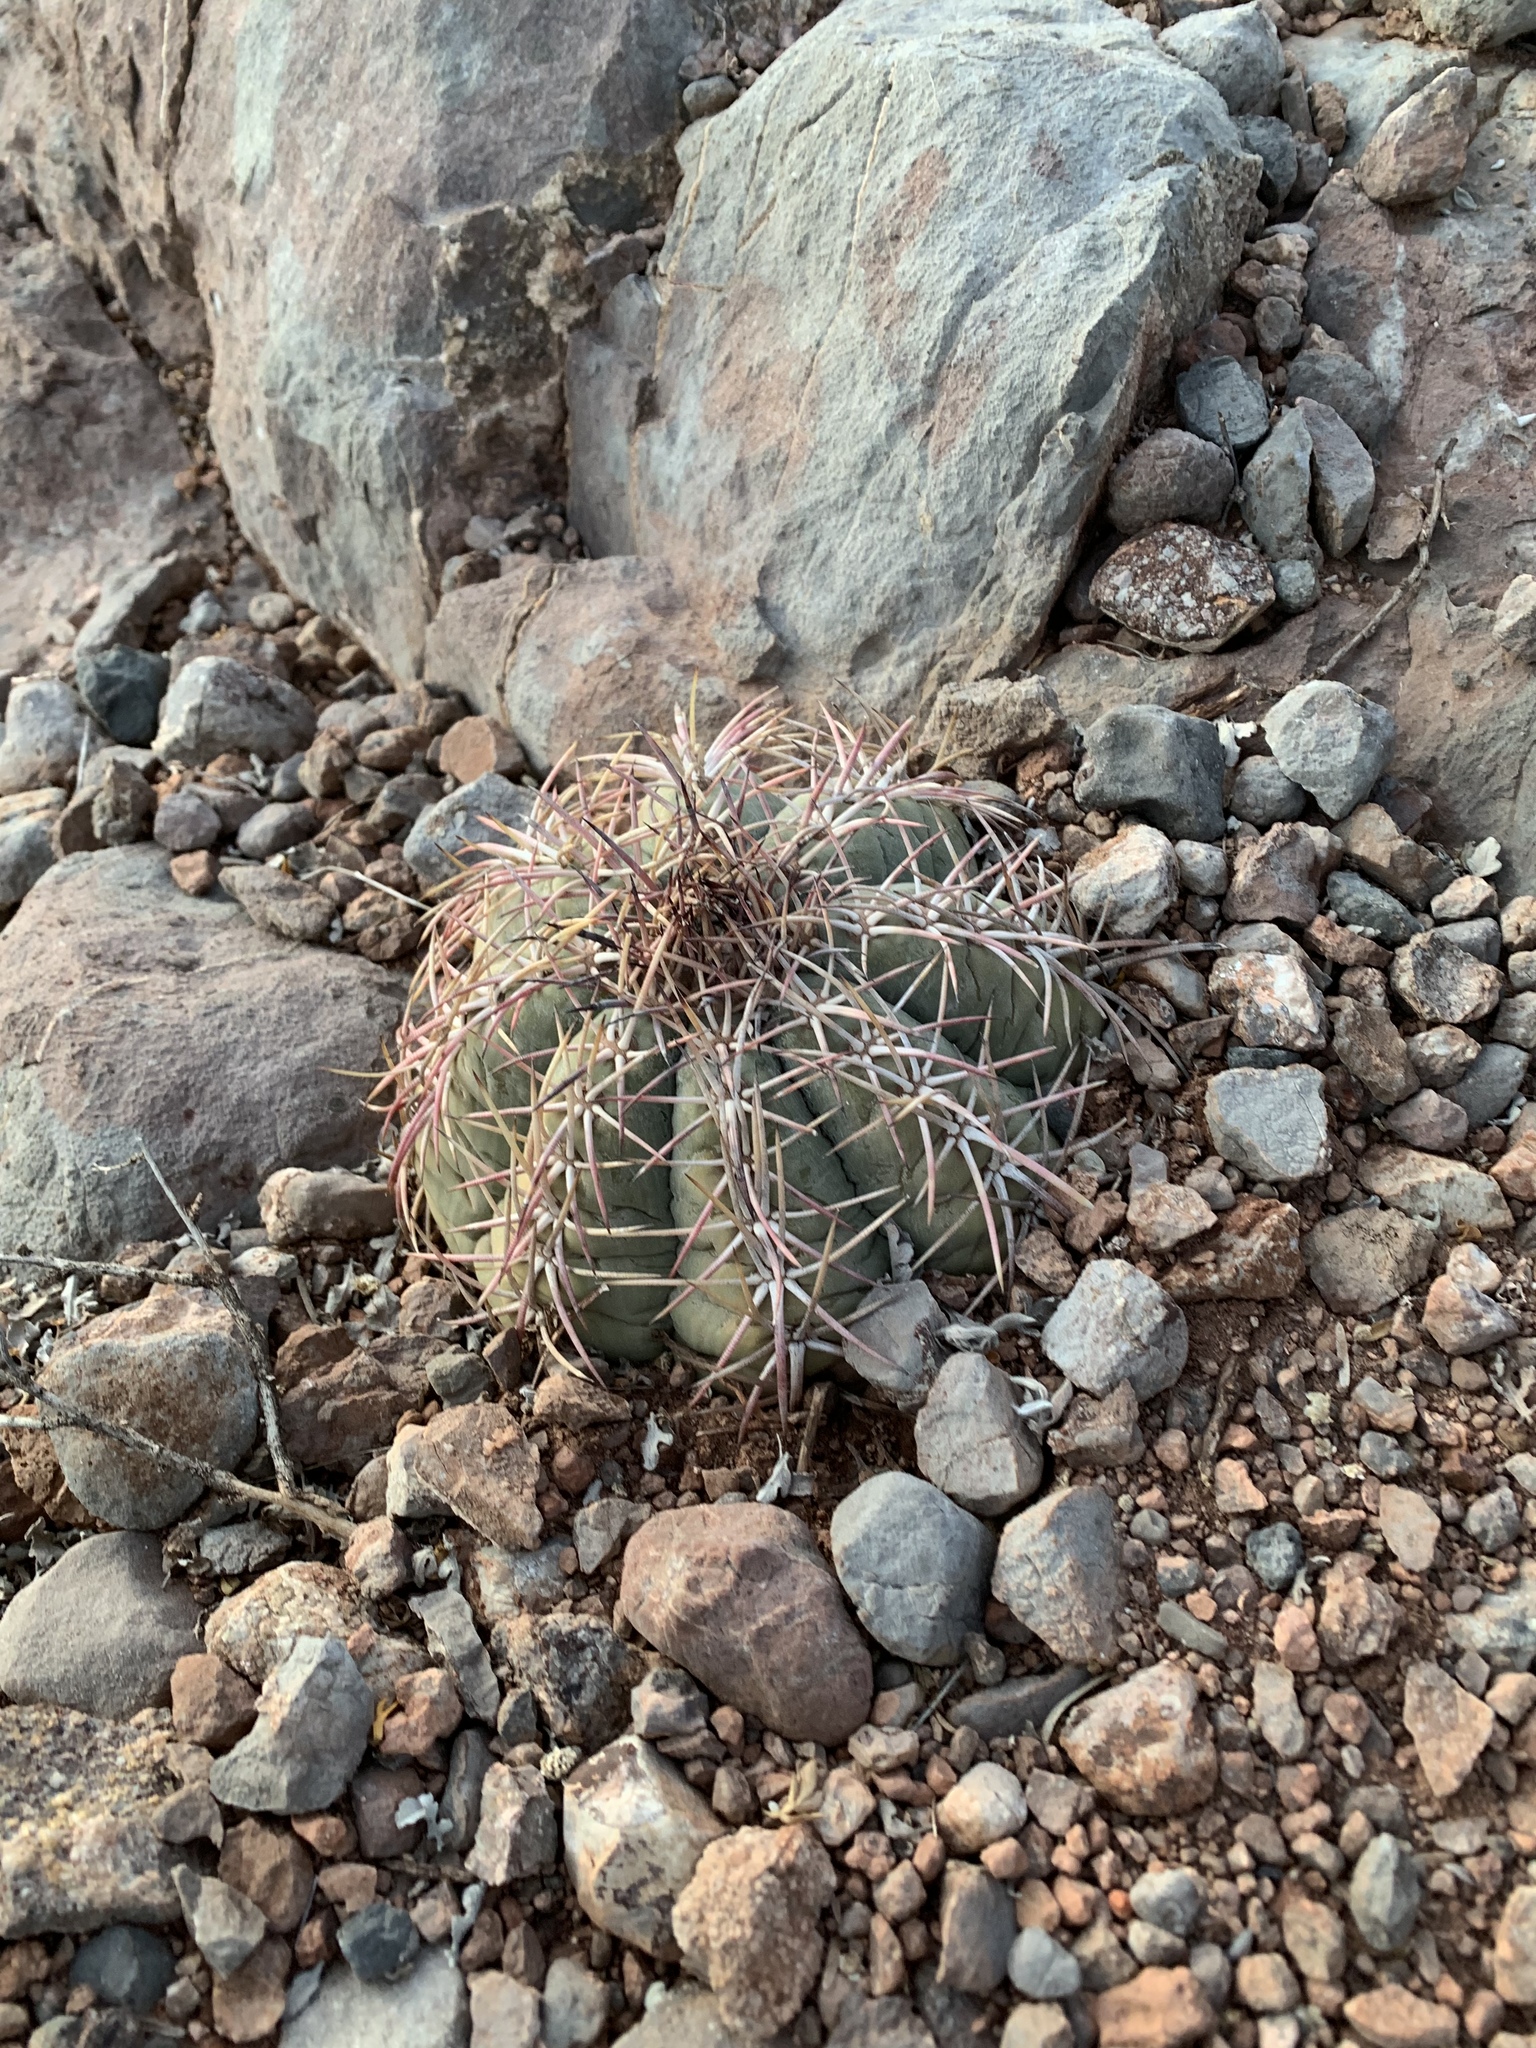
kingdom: Plantae
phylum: Tracheophyta
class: Magnoliopsida
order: Caryophyllales
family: Cactaceae
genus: Echinocactus
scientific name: Echinocactus horizonthalonius
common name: Devilshead
